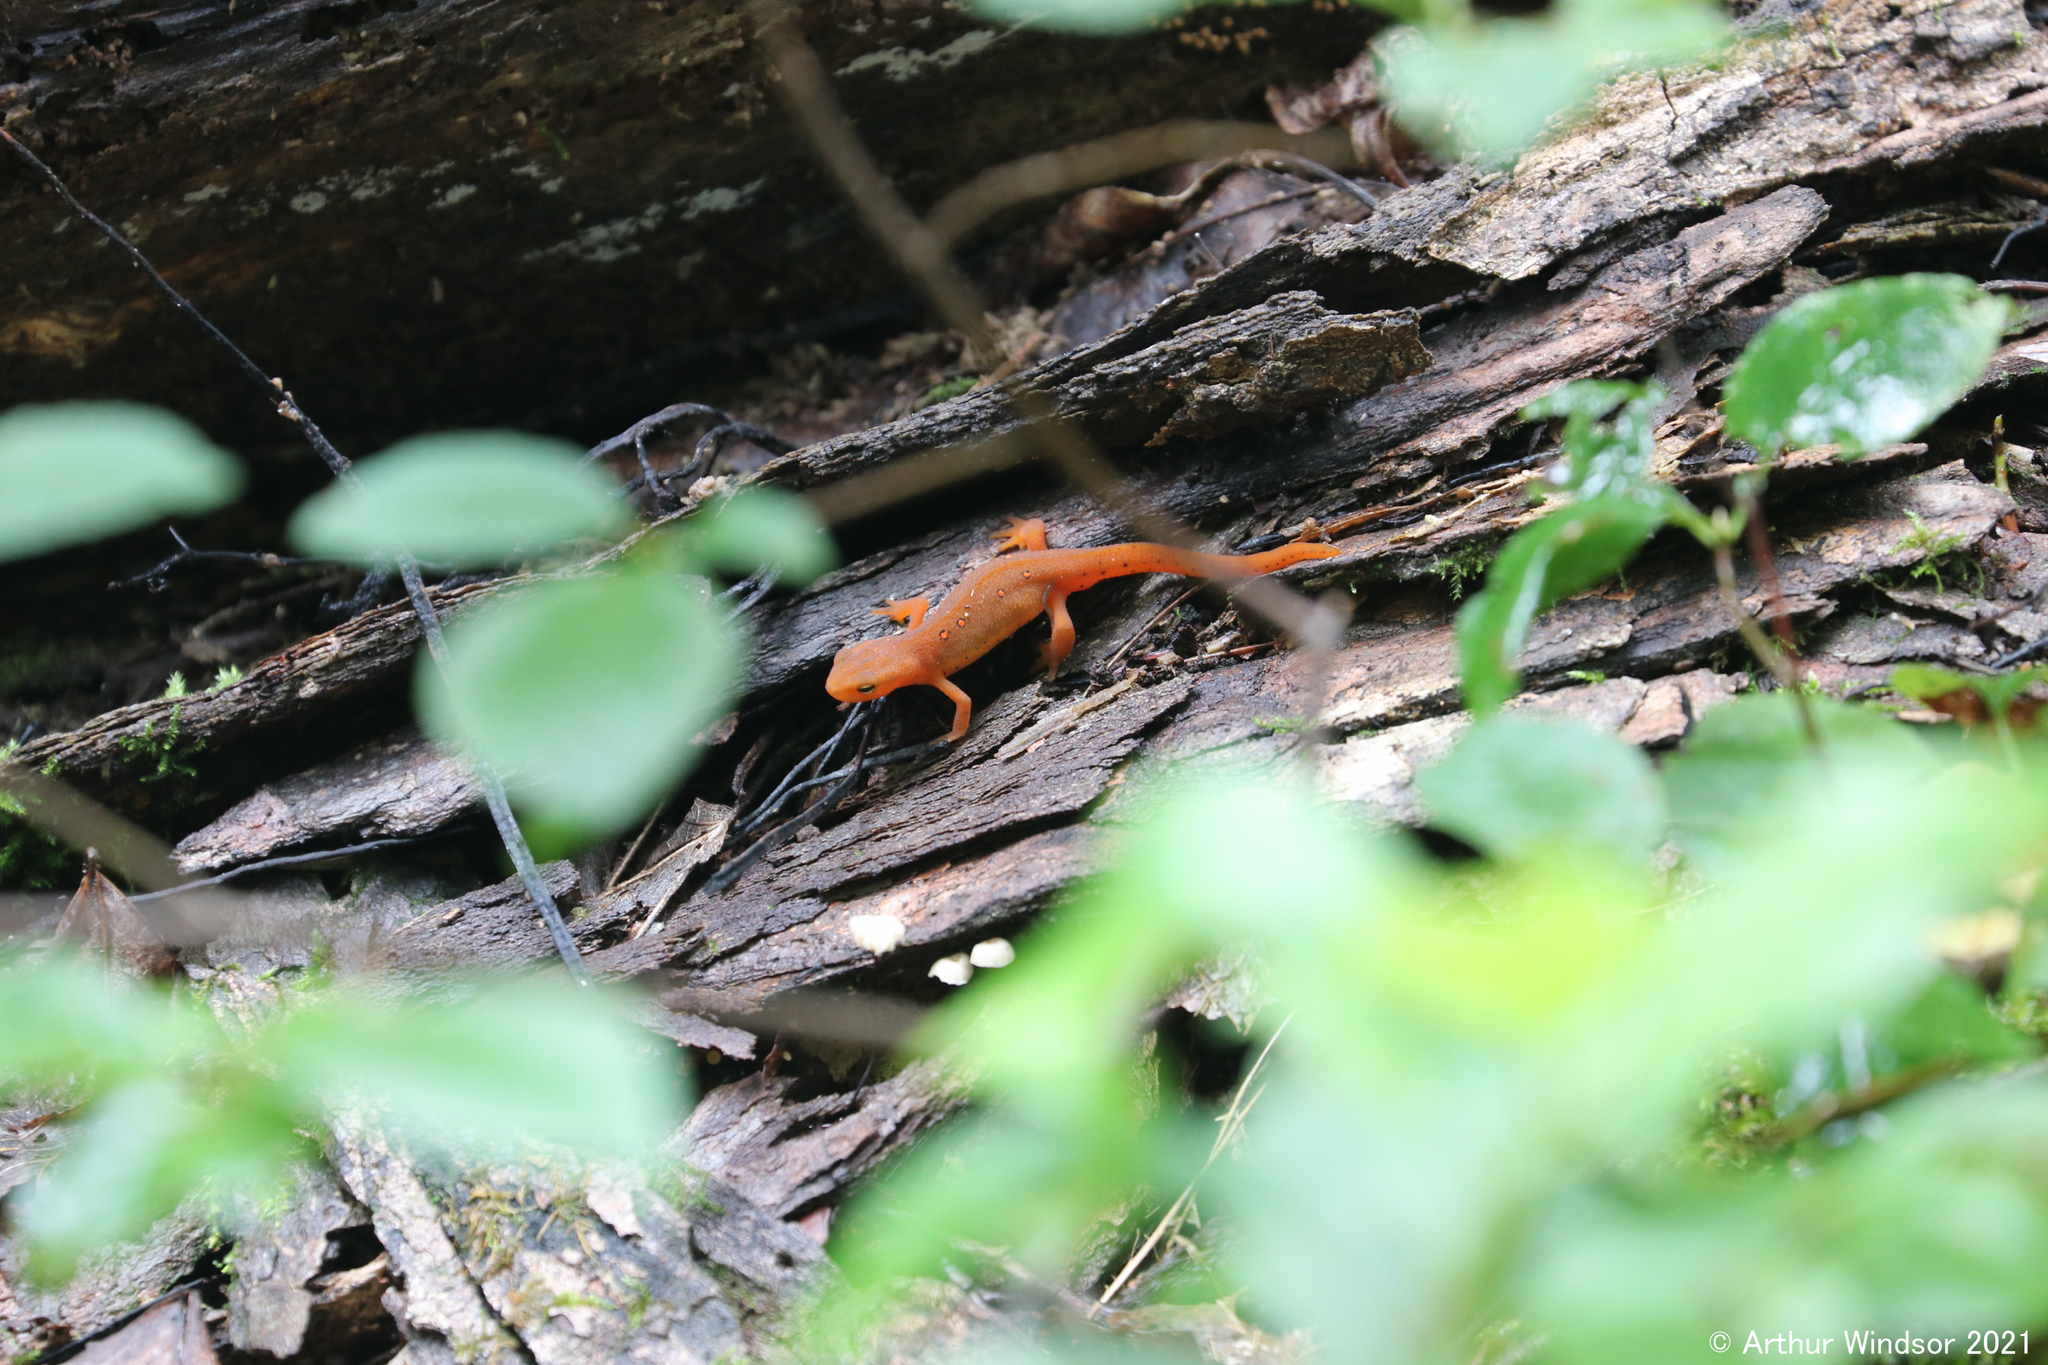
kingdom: Animalia
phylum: Chordata
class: Amphibia
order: Caudata
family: Salamandridae
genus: Notophthalmus
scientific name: Notophthalmus viridescens
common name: Eastern newt
